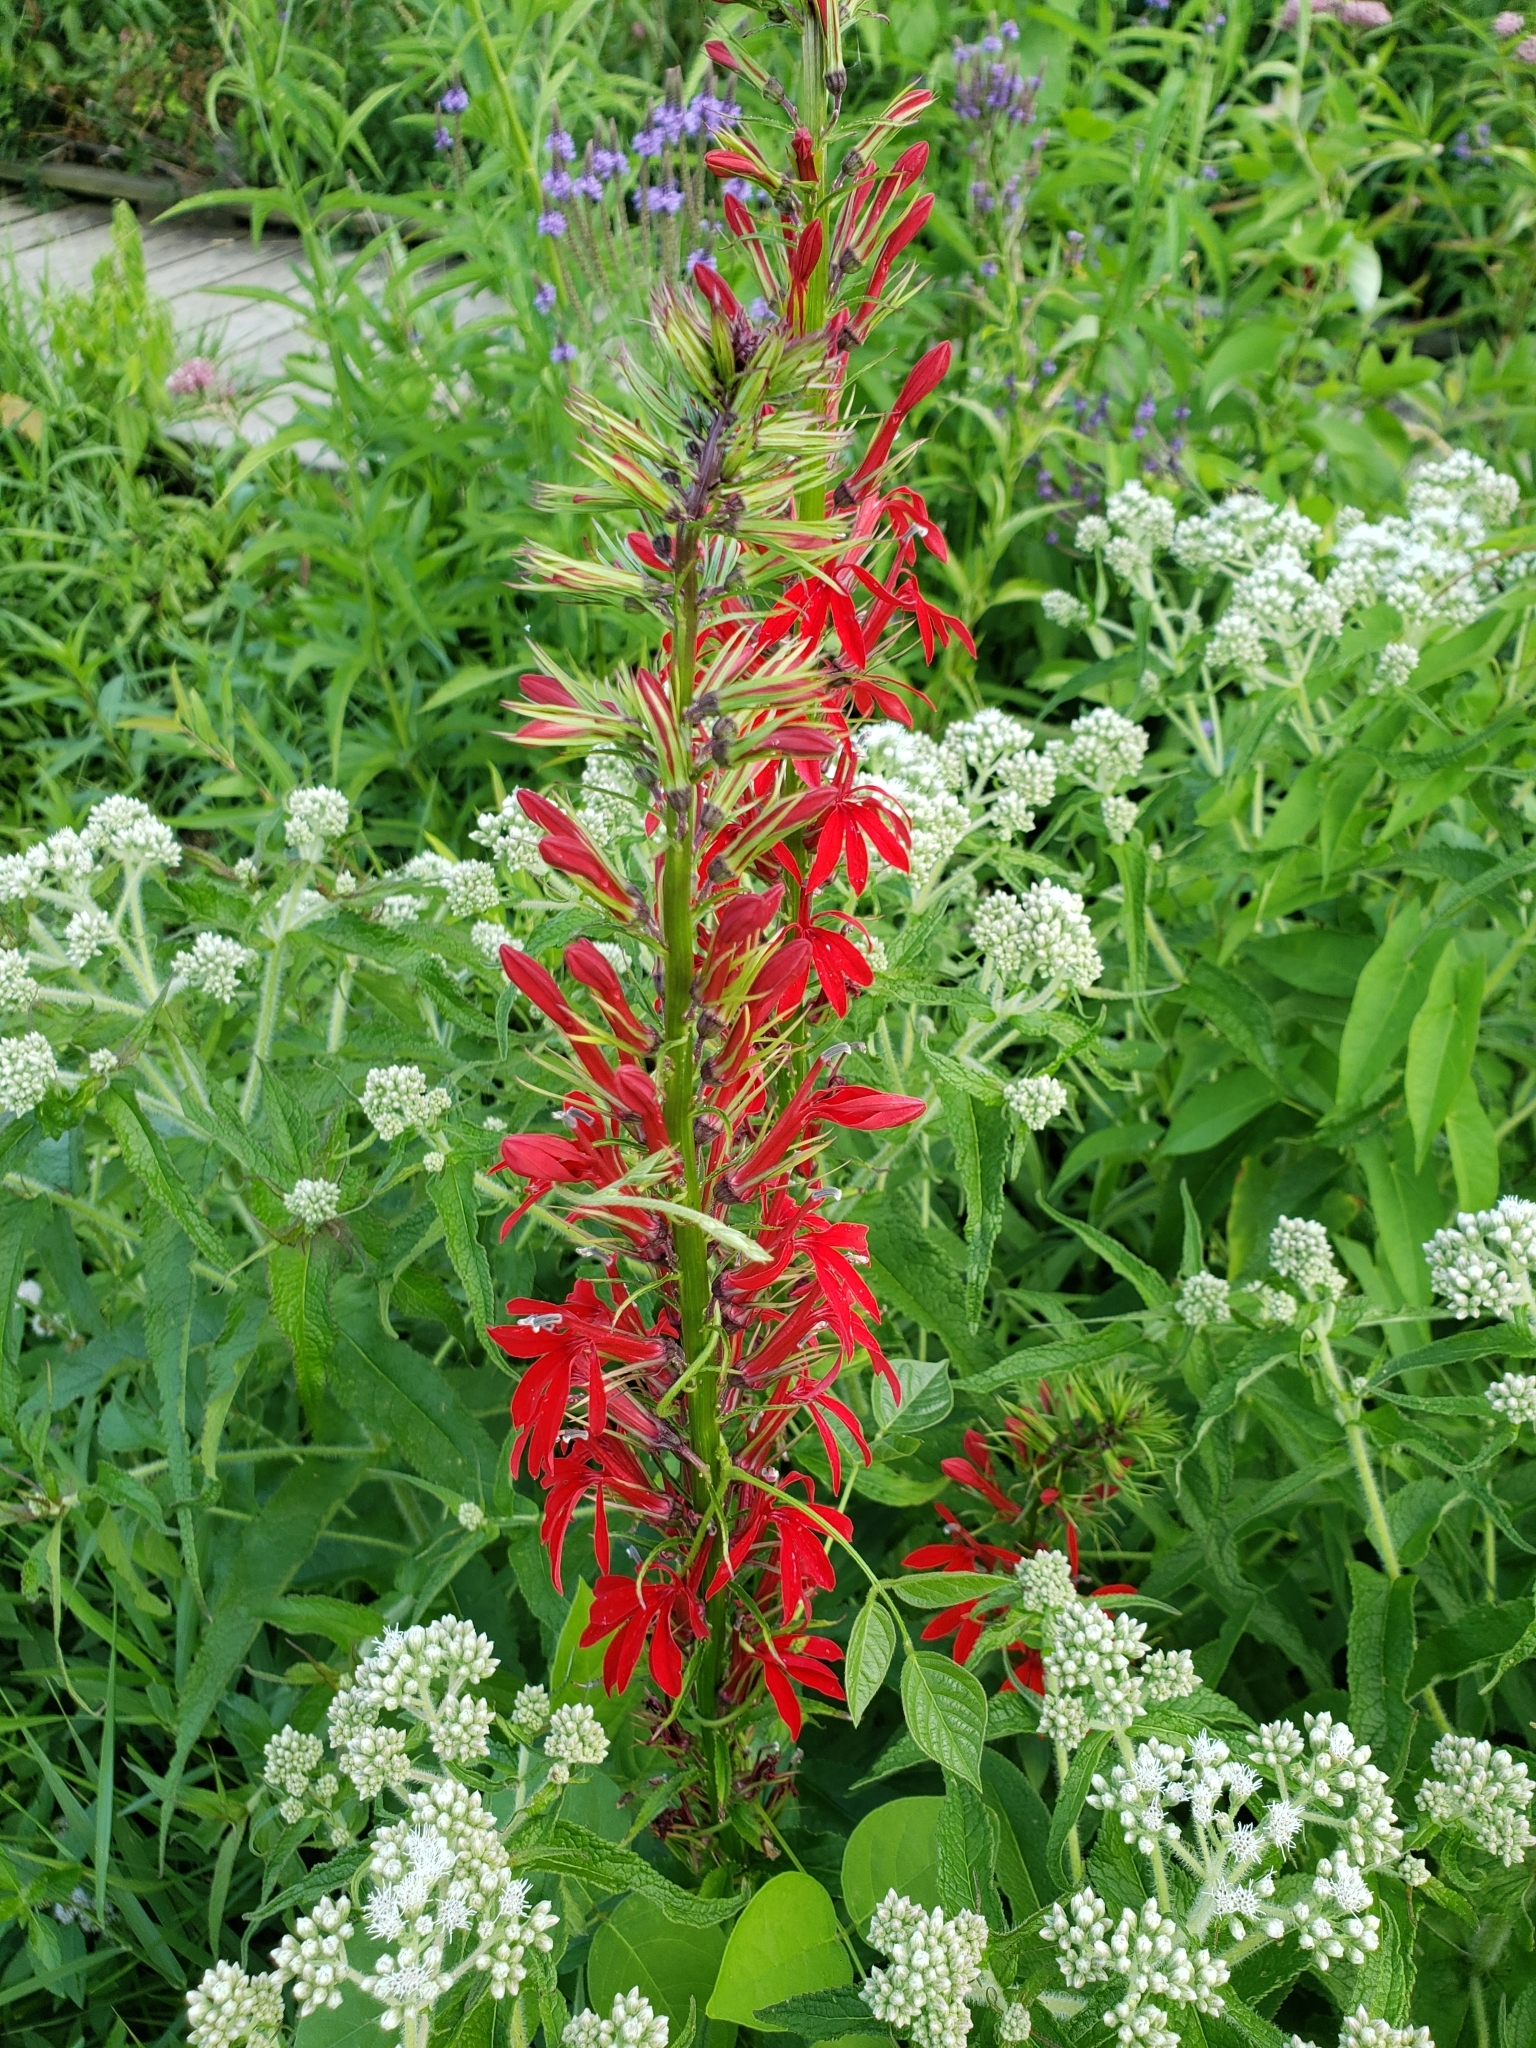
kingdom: Plantae
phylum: Tracheophyta
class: Magnoliopsida
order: Asterales
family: Campanulaceae
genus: Lobelia
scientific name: Lobelia cardinalis
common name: Cardinal flower
